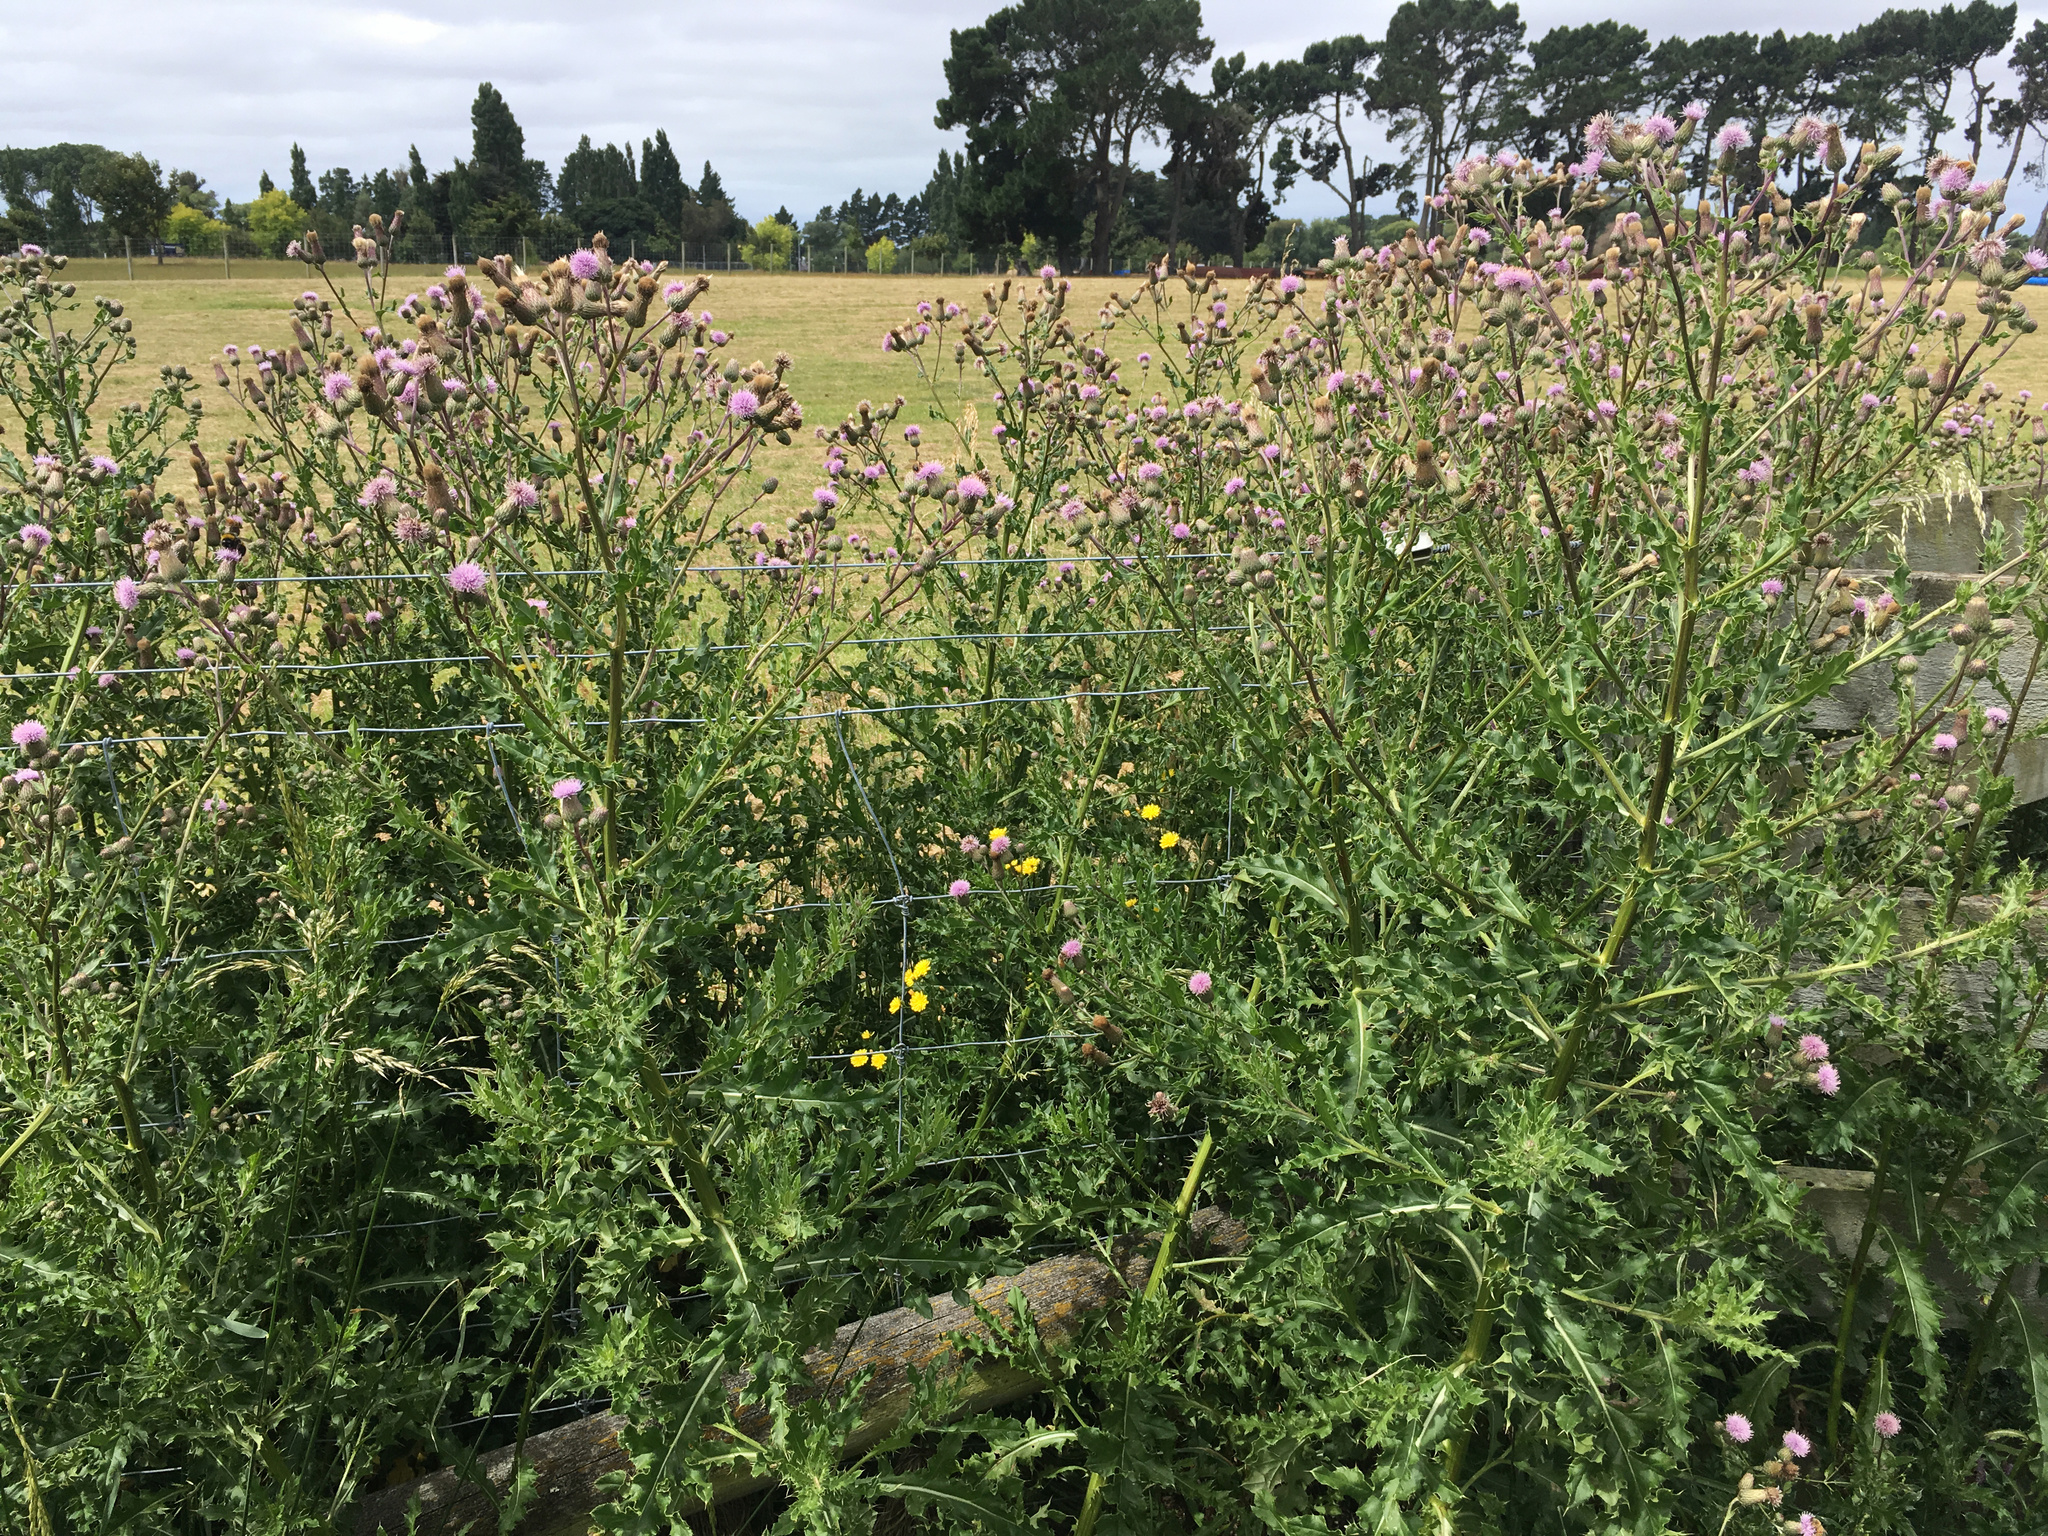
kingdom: Plantae
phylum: Tracheophyta
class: Magnoliopsida
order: Asterales
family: Asteraceae
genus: Cirsium
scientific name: Cirsium arvense
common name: Creeping thistle
